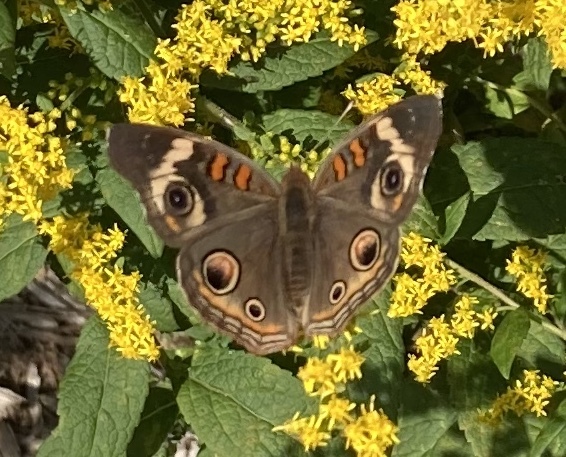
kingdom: Animalia
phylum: Arthropoda
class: Insecta
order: Lepidoptera
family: Nymphalidae
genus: Junonia
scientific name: Junonia coenia
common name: Common buckeye
